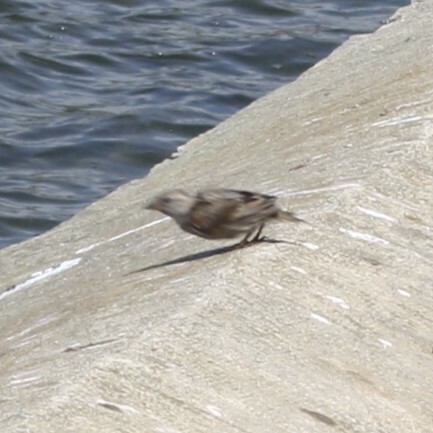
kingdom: Animalia
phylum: Chordata
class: Aves
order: Passeriformes
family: Passeridae
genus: Passer
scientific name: Passer domesticus
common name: House sparrow
